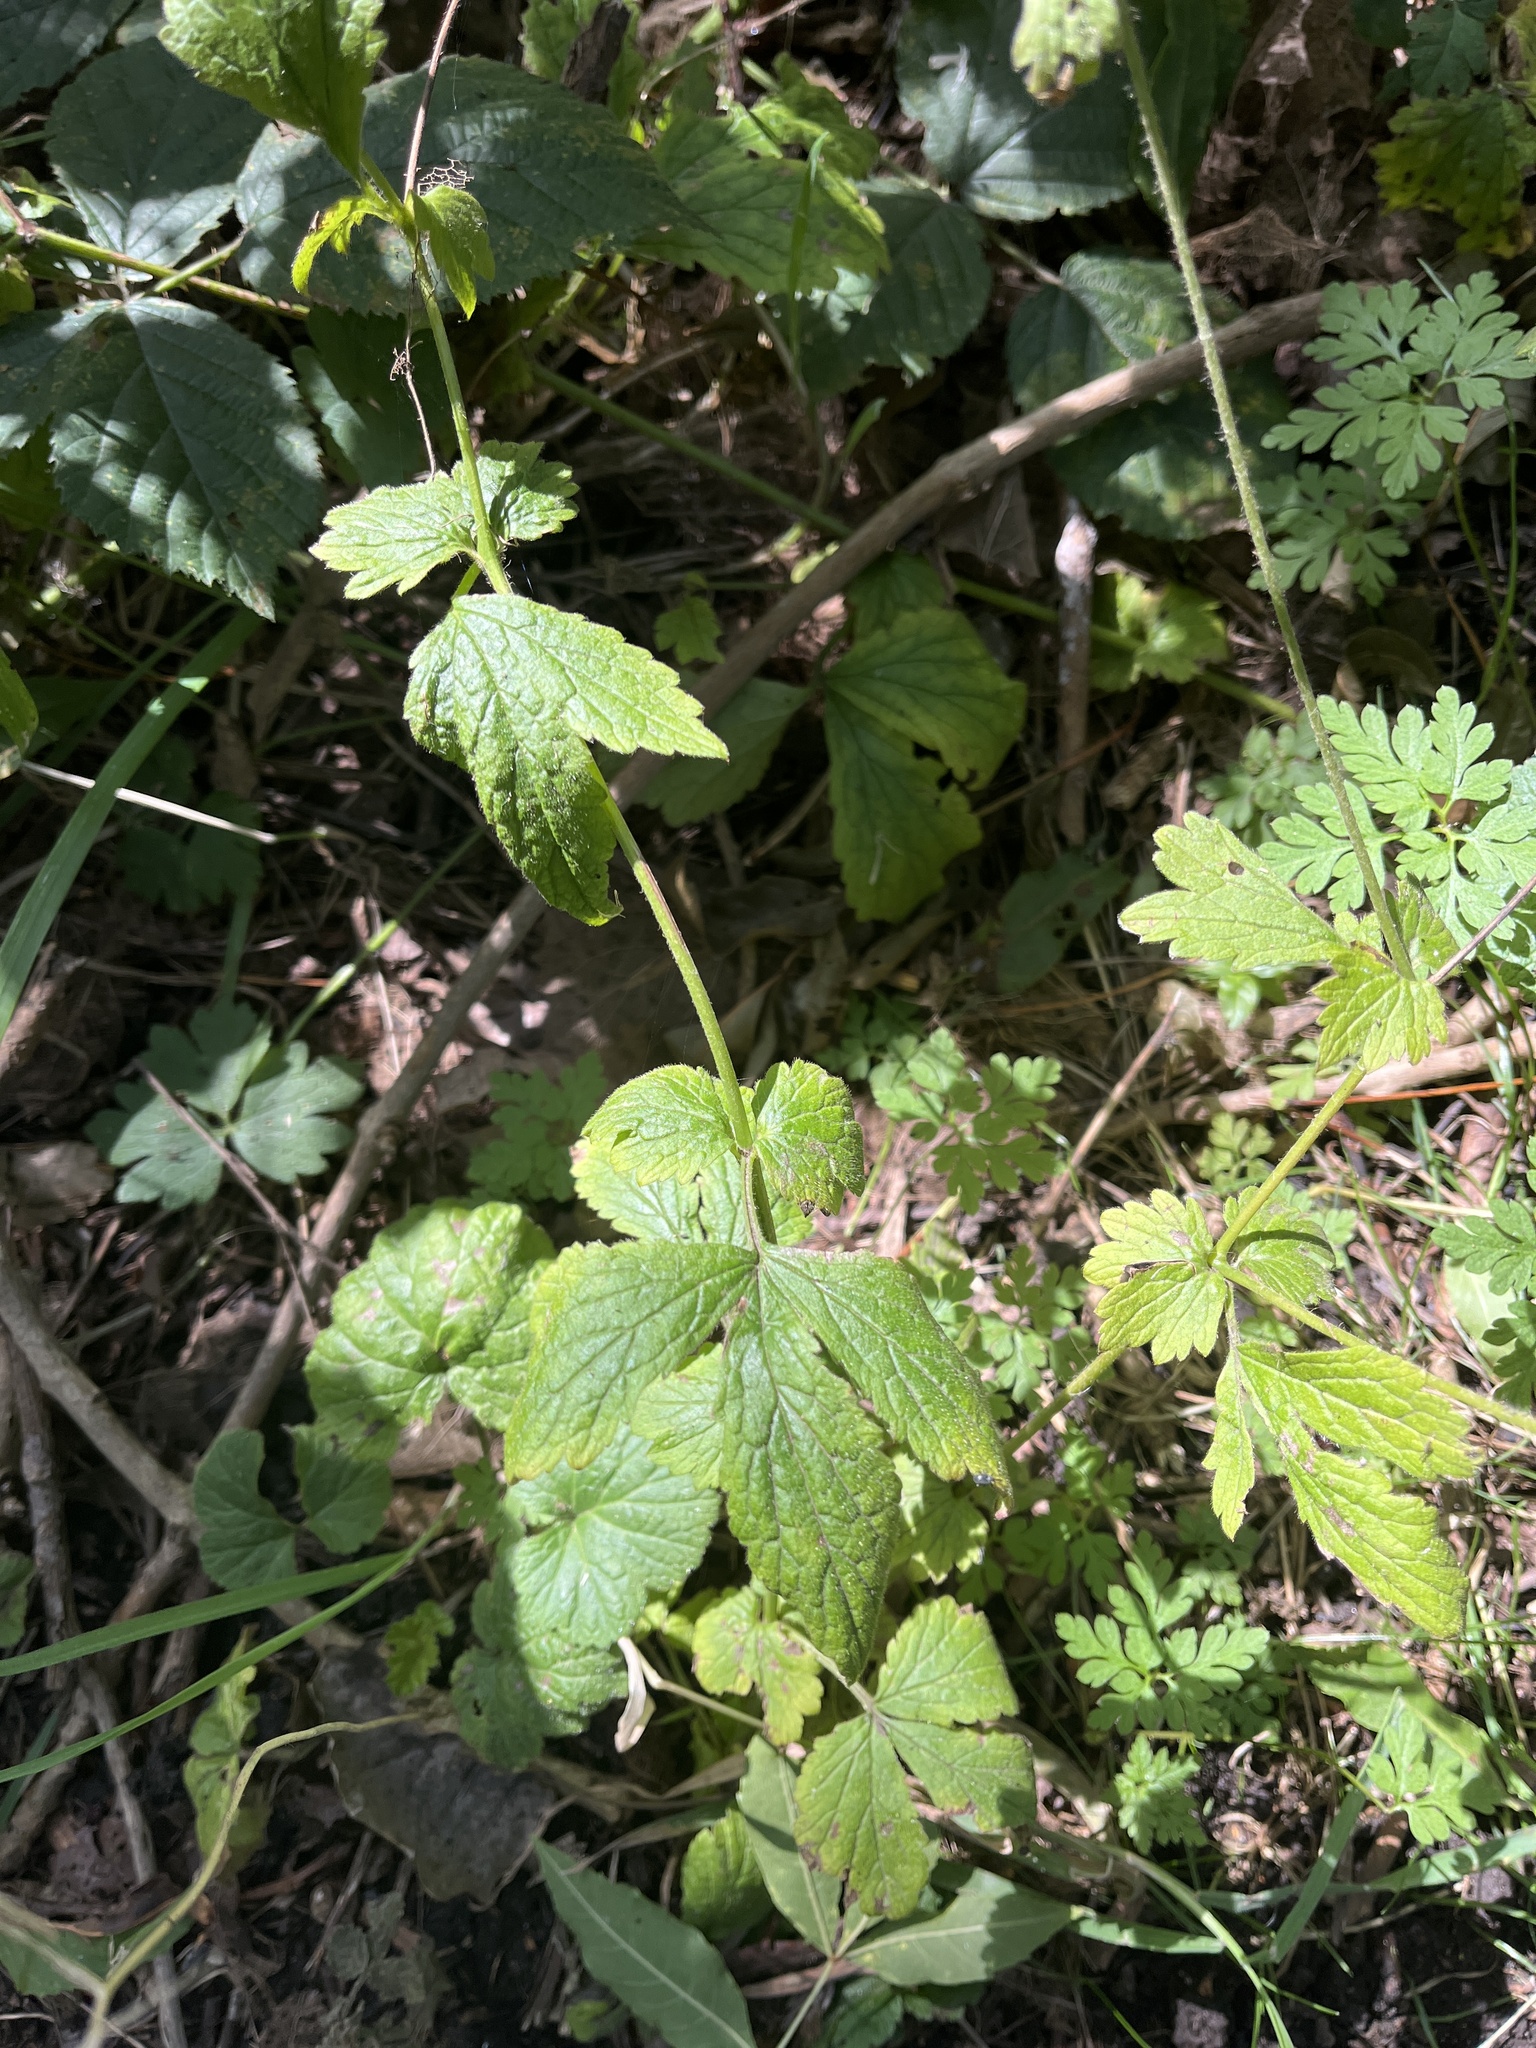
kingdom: Plantae
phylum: Tracheophyta
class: Magnoliopsida
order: Rosales
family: Rosaceae
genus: Geum
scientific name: Geum urbanum
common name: Wood avens
